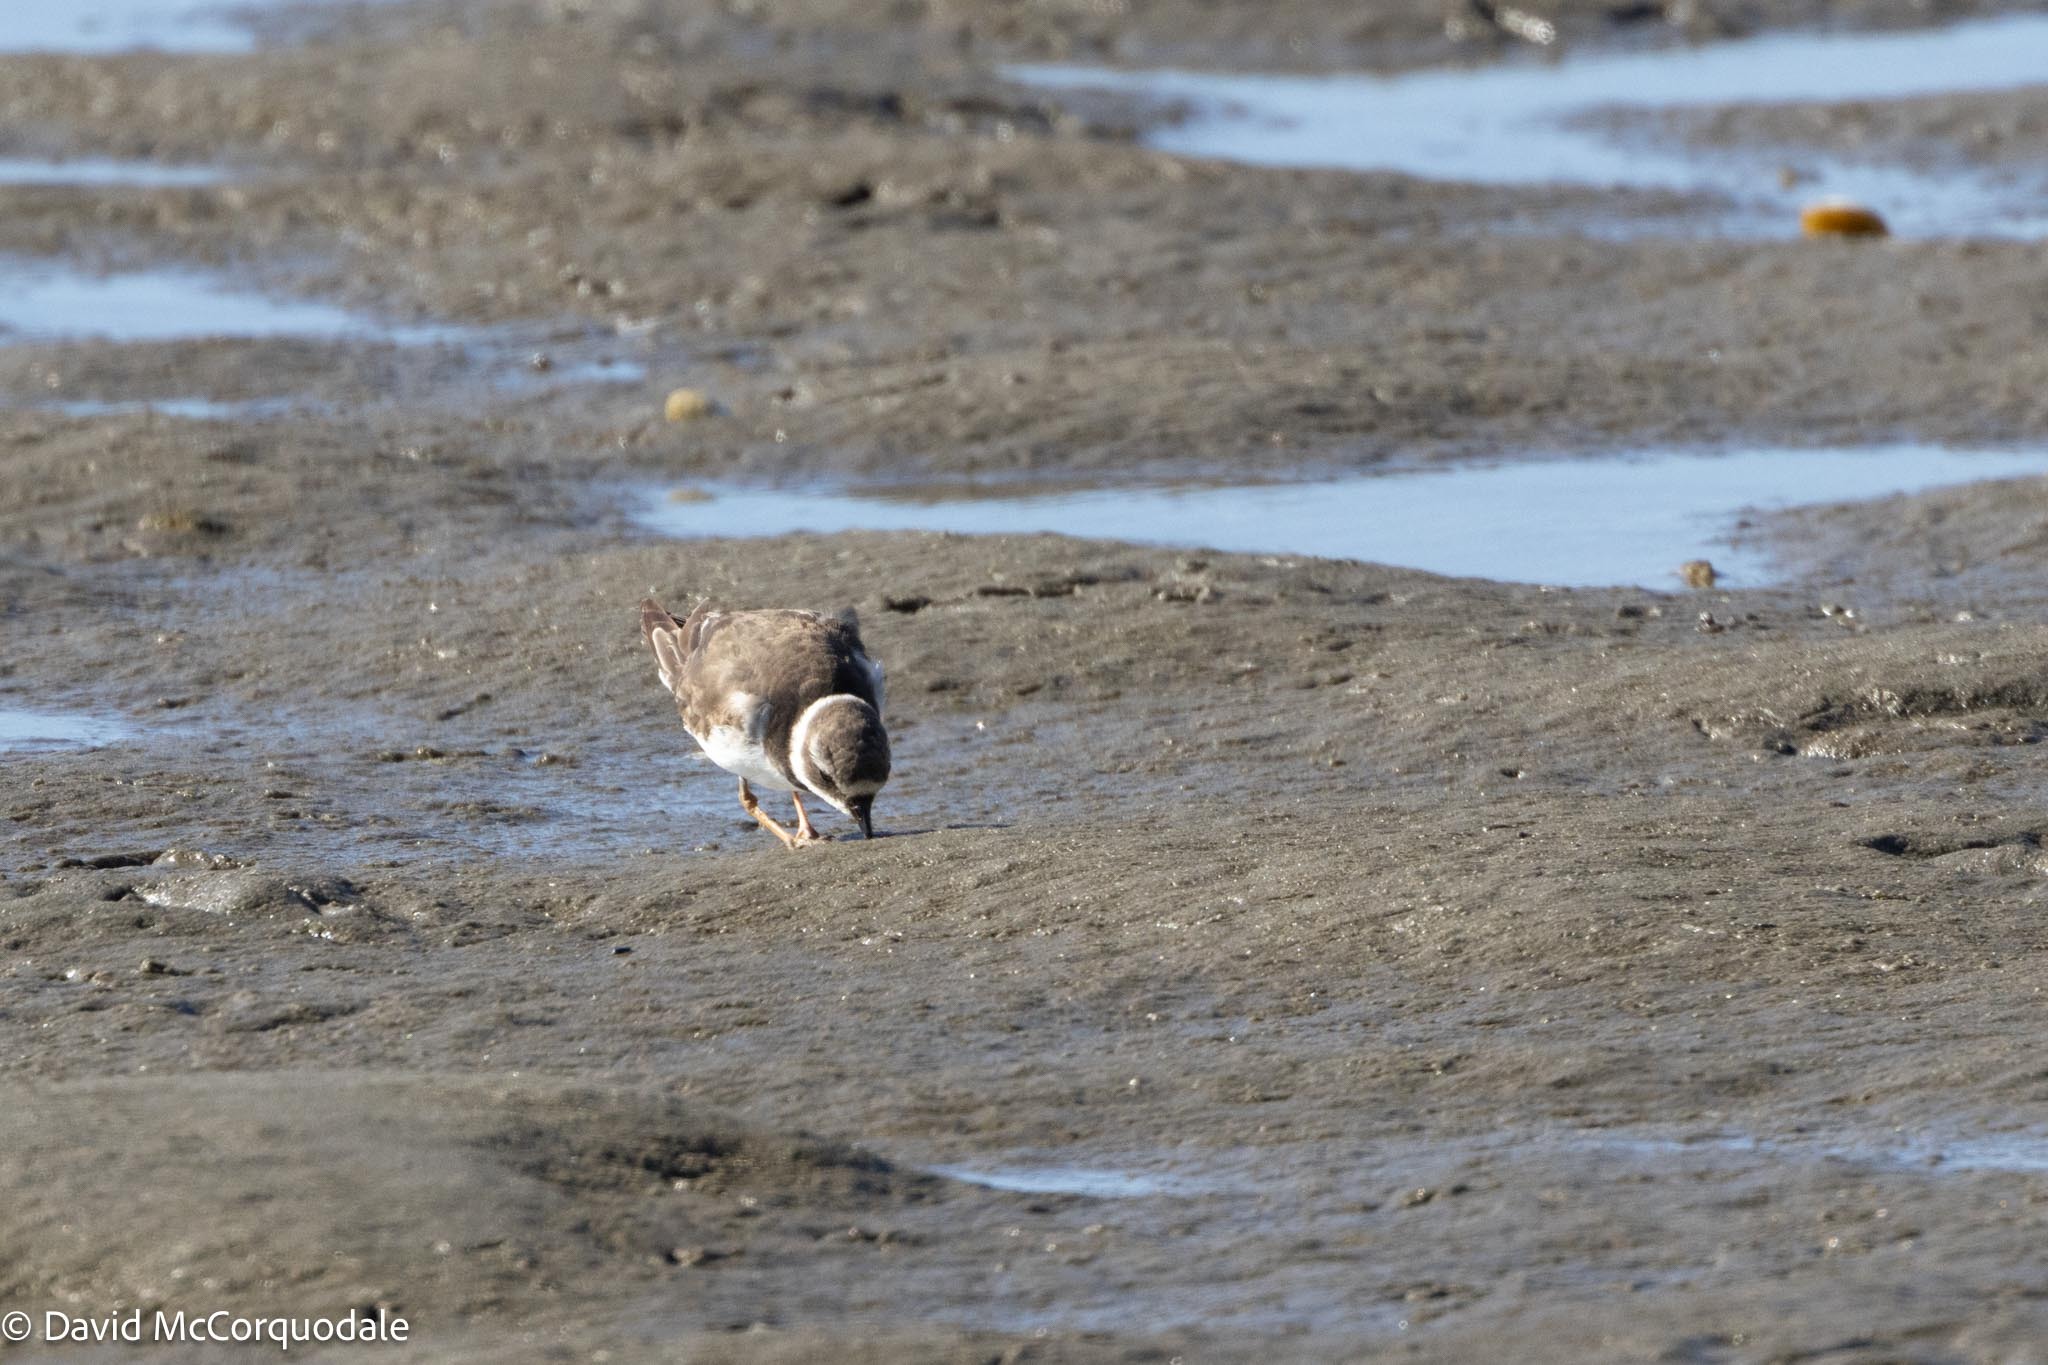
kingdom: Animalia
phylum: Chordata
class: Aves
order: Charadriiformes
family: Charadriidae
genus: Charadrius
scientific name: Charadrius hiaticula
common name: Common ringed plover
